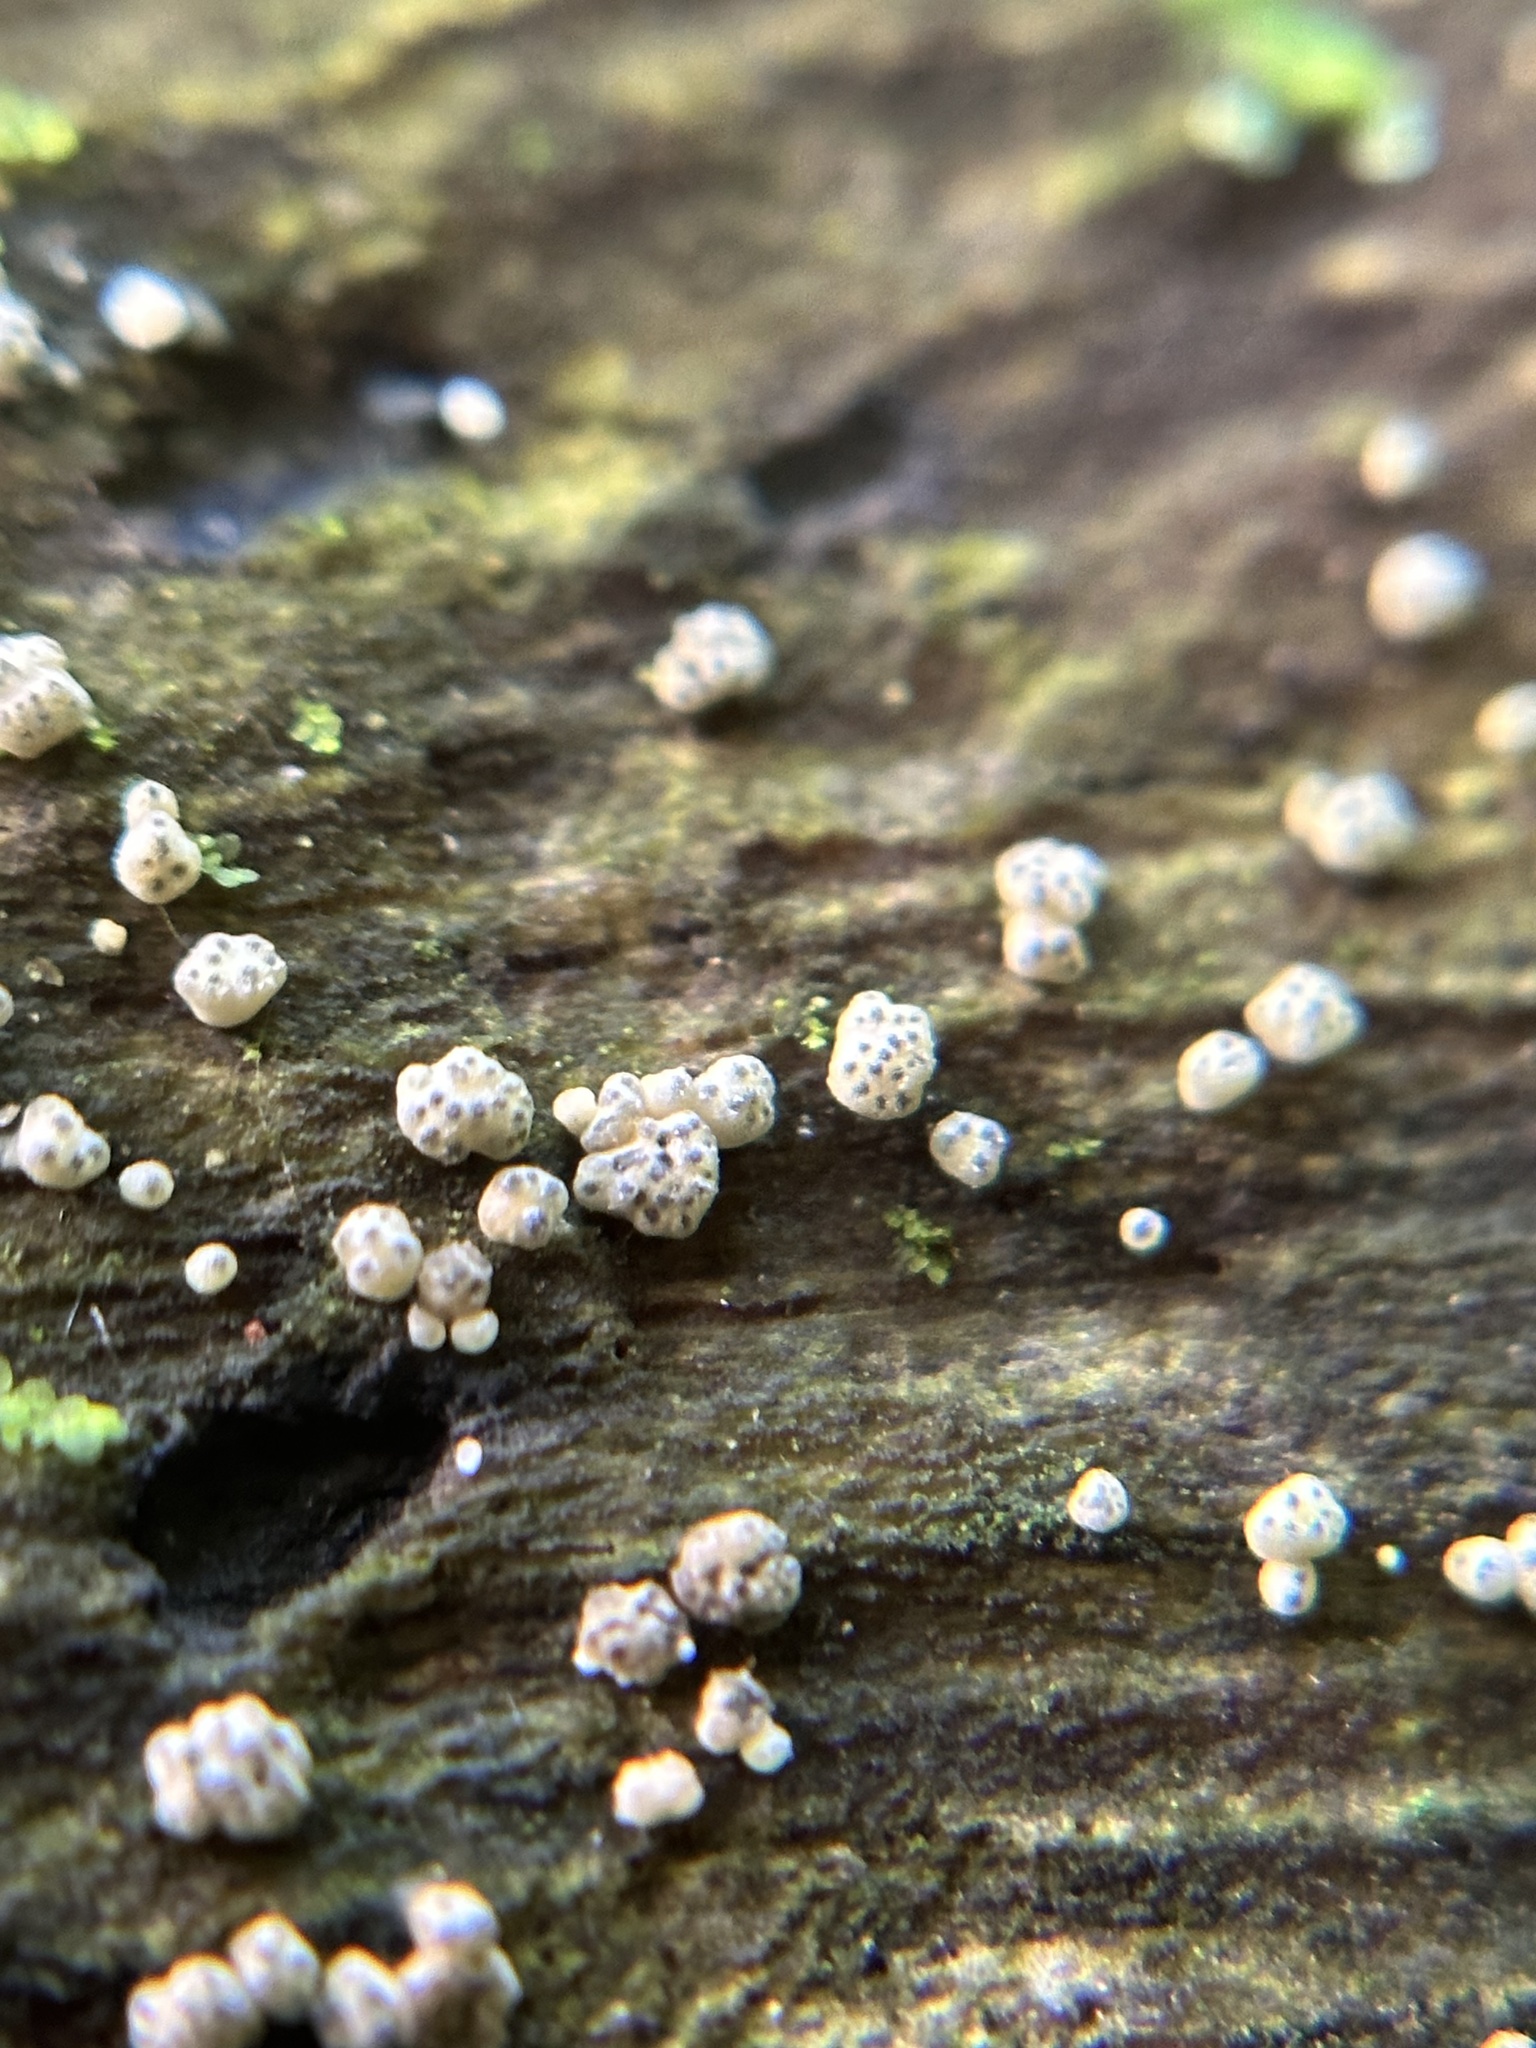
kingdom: Fungi
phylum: Ascomycota
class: Sordariomycetes
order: Hypocreales
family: Hypocreaceae
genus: Trichoderma
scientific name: Trichoderma gelatinosum
